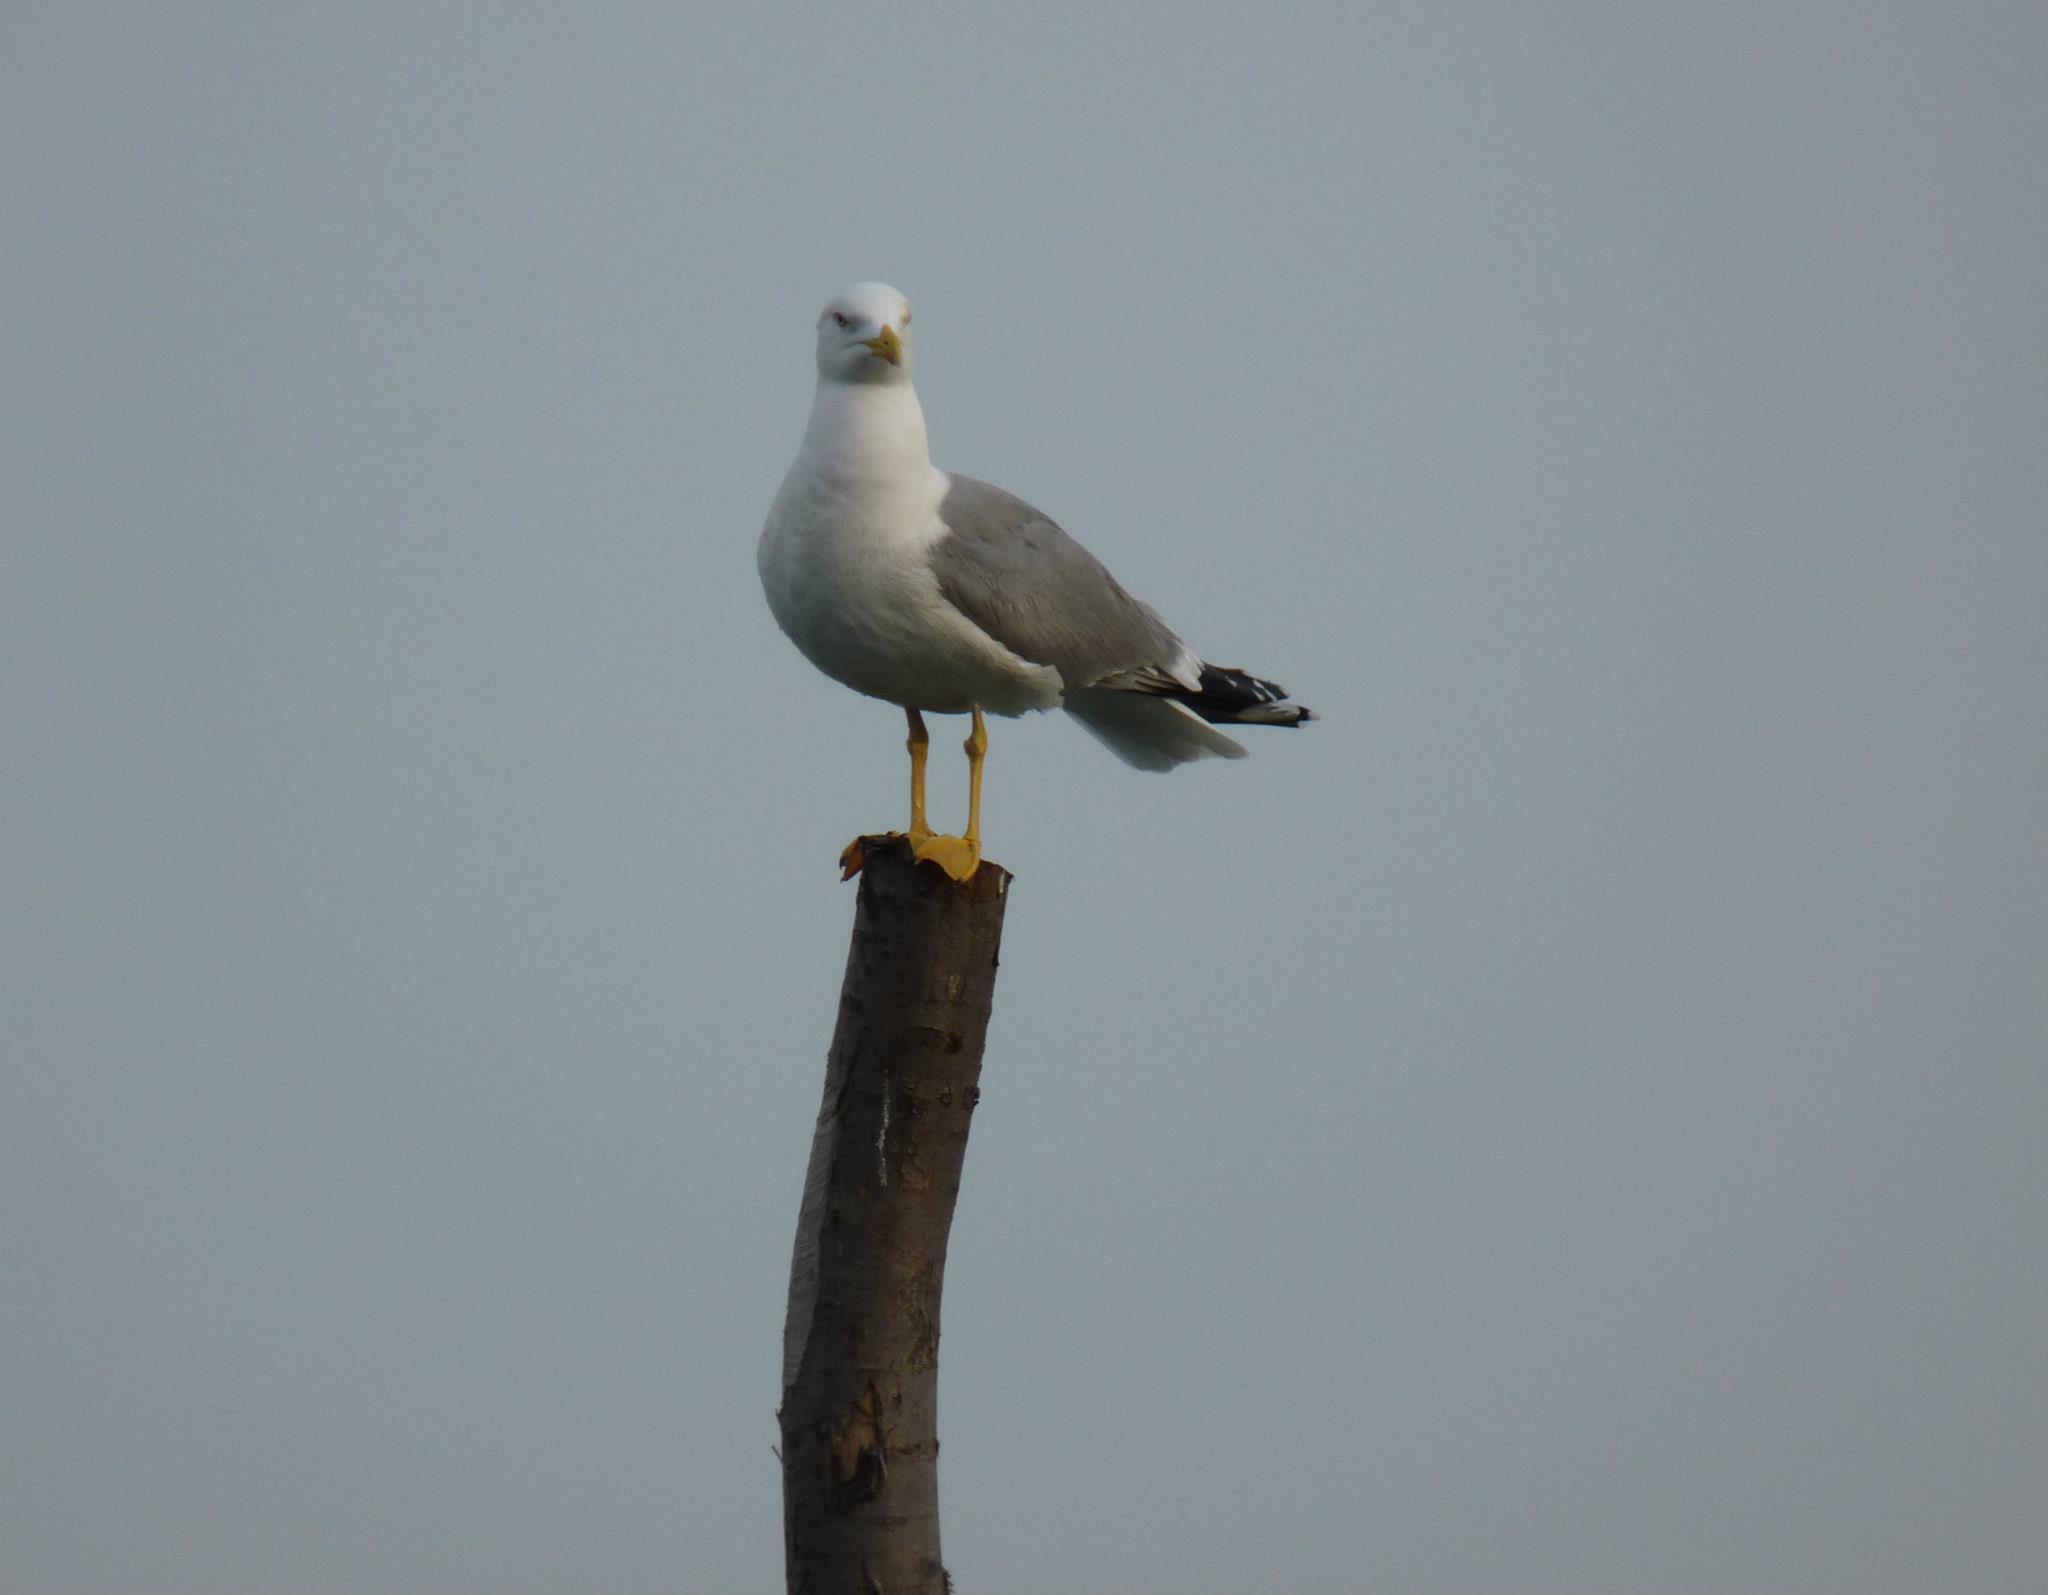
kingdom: Animalia
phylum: Chordata
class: Aves
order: Charadriiformes
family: Laridae
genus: Larus
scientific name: Larus michahellis
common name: Yellow-legged gull
